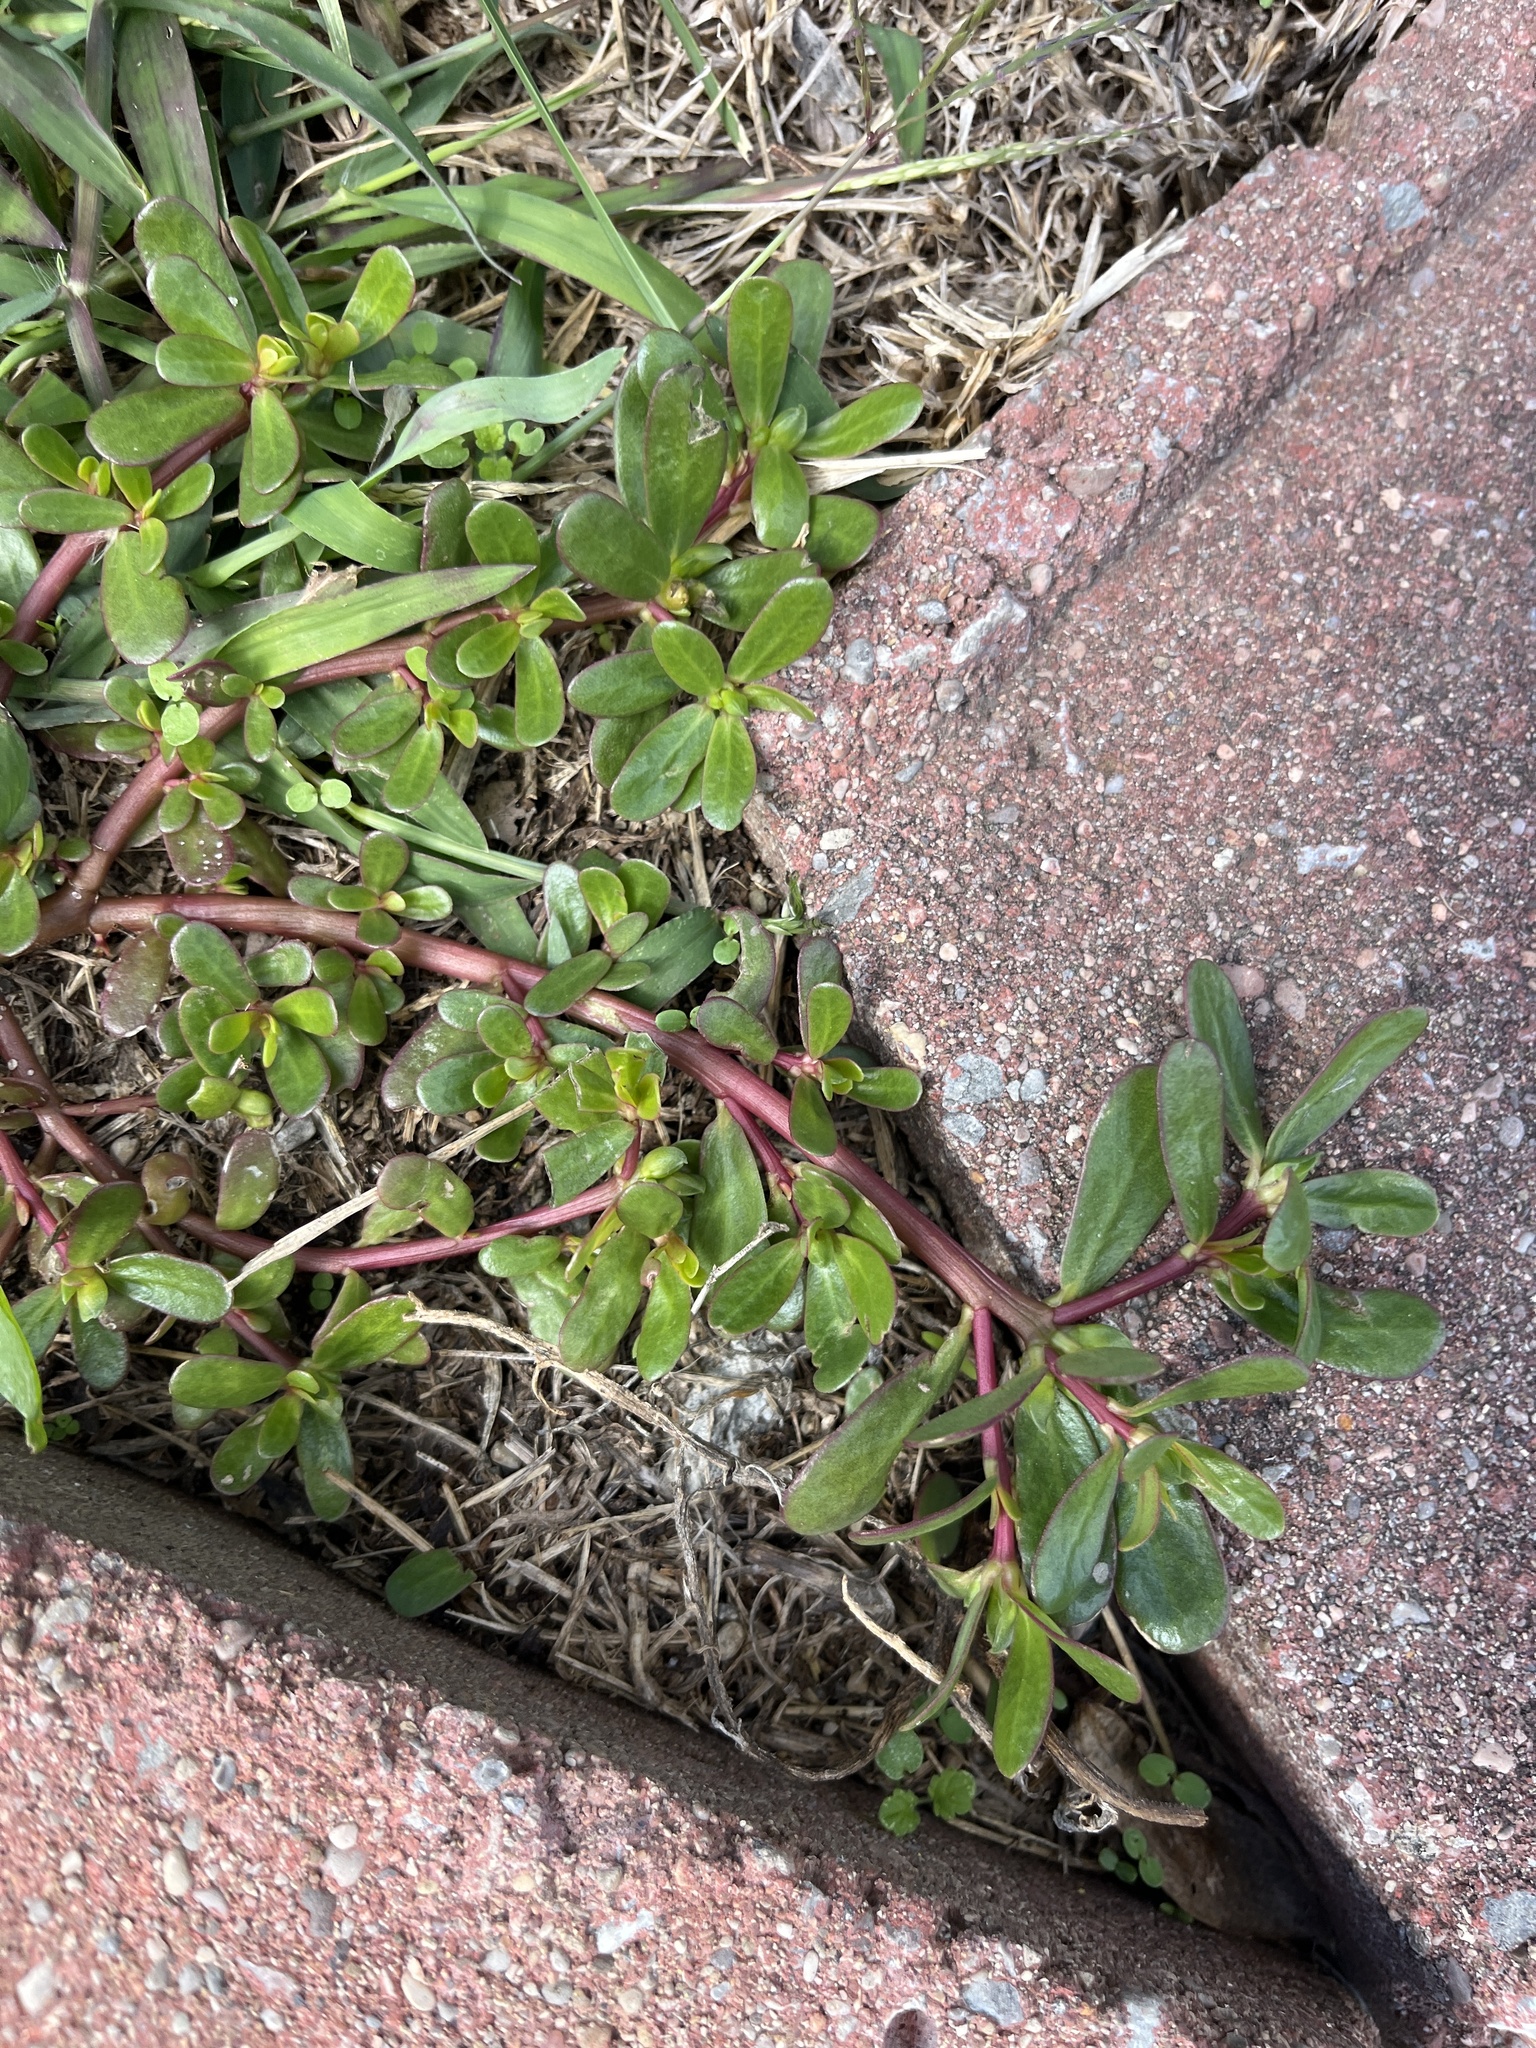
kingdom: Plantae
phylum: Tracheophyta
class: Magnoliopsida
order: Caryophyllales
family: Portulacaceae
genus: Portulaca
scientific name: Portulaca oleracea
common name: Common purslane
